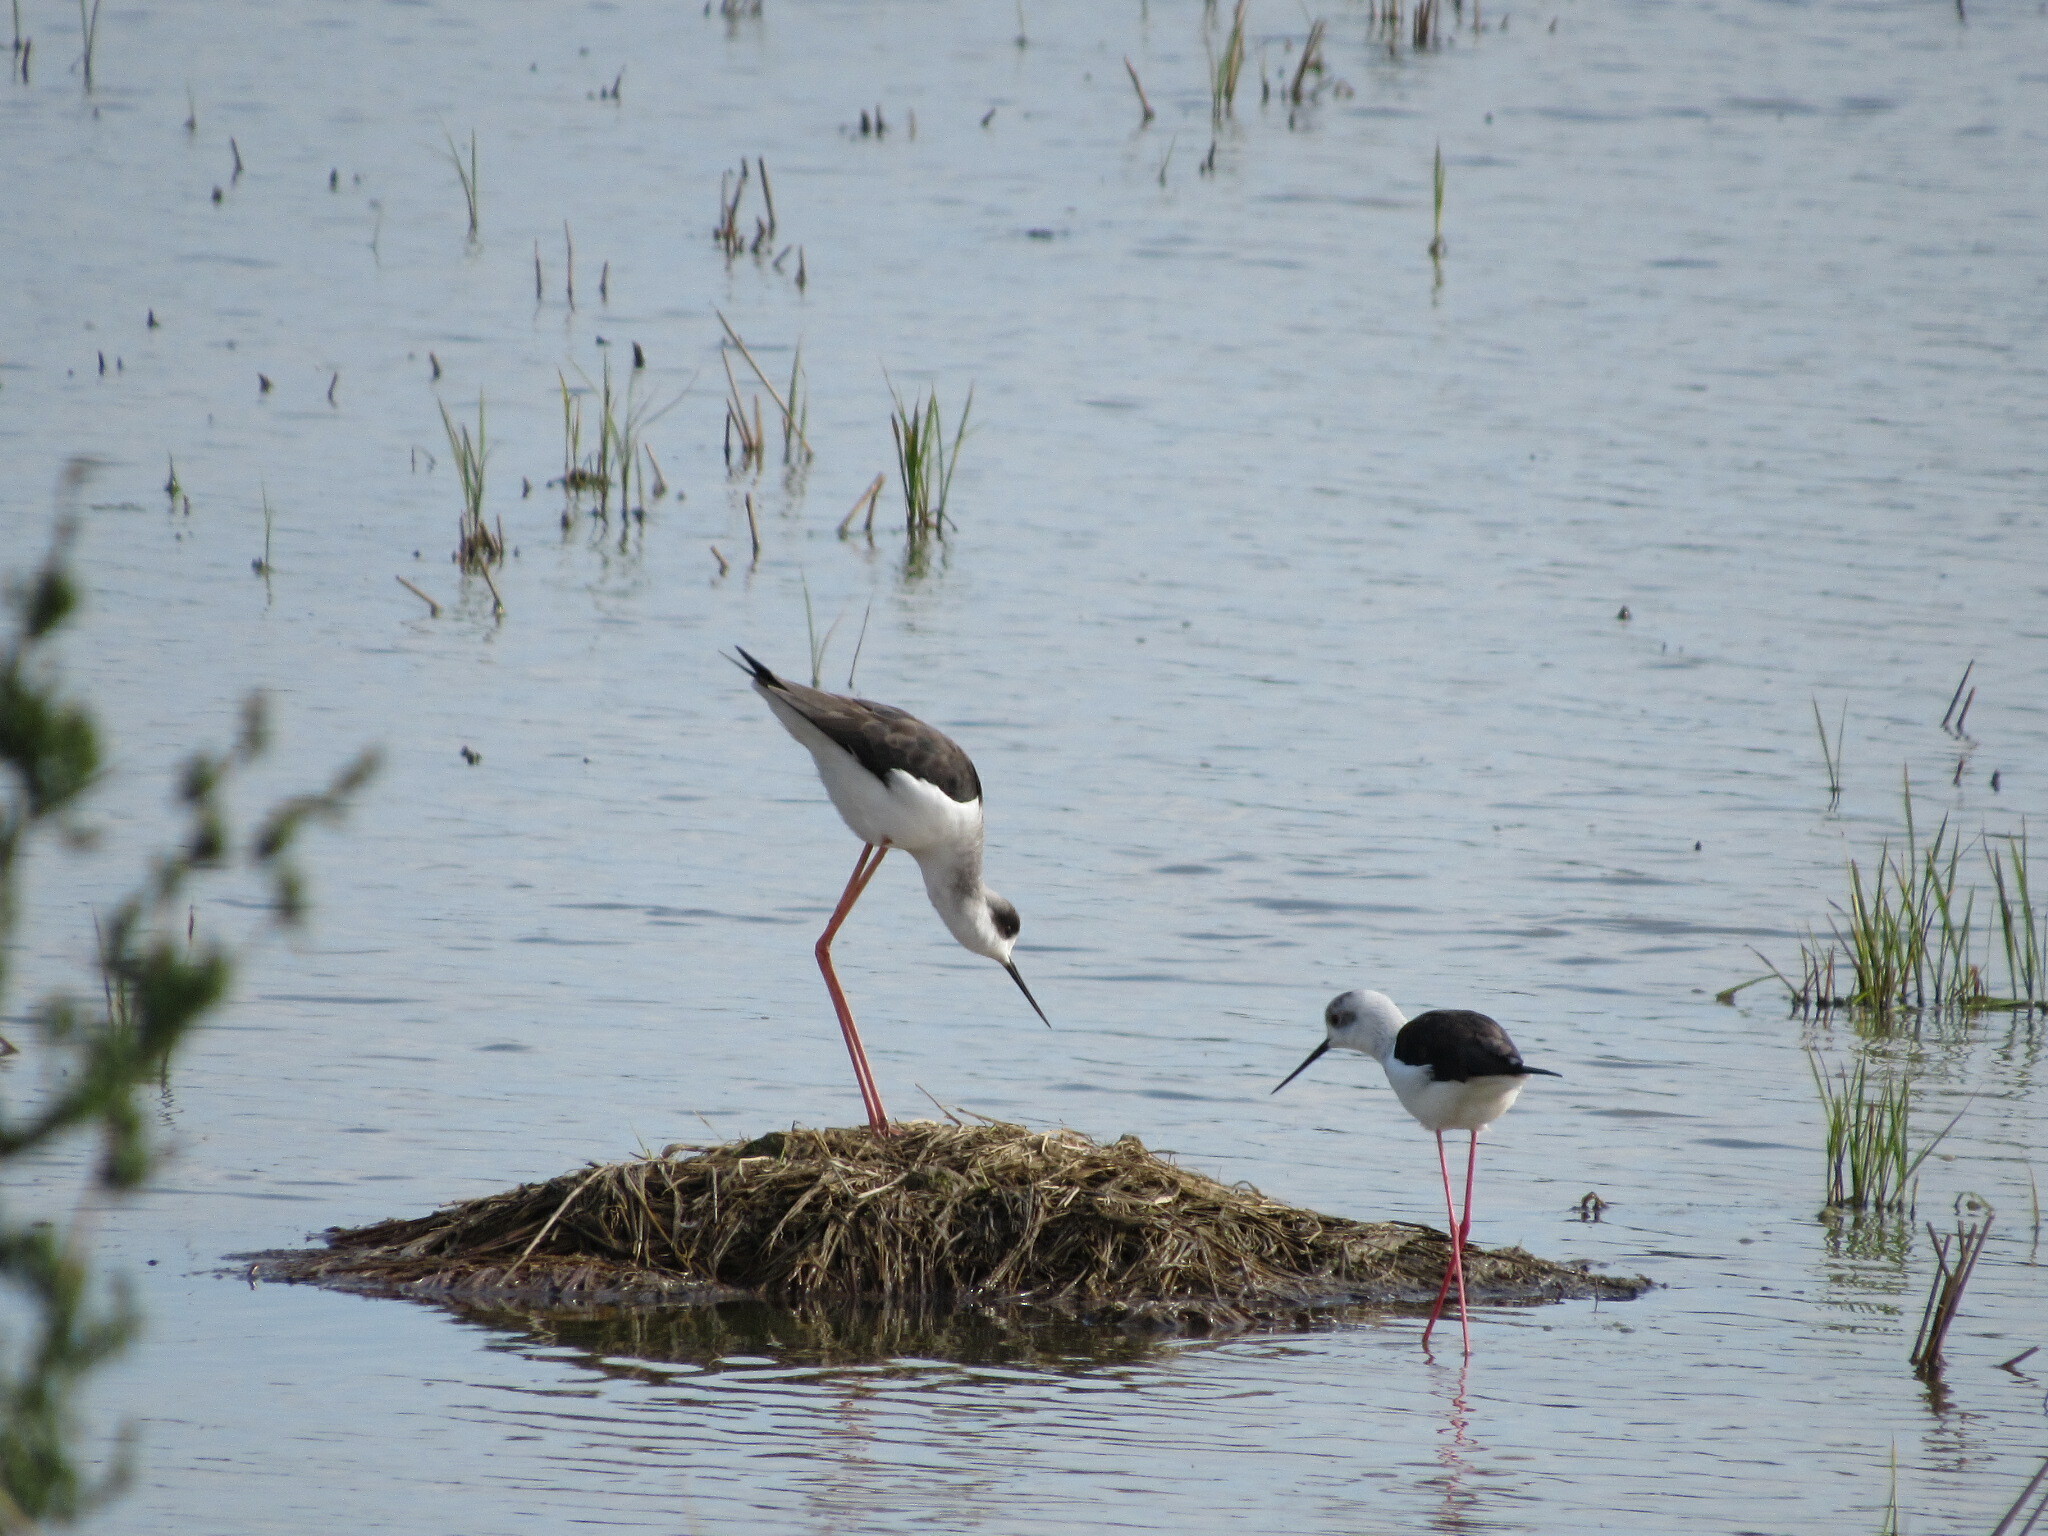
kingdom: Animalia
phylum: Chordata
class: Aves
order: Charadriiformes
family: Recurvirostridae
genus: Himantopus
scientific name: Himantopus himantopus
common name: Black-winged stilt
